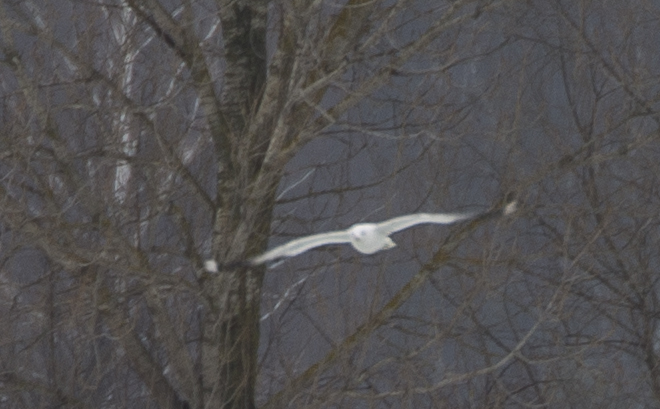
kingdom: Animalia
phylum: Chordata
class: Aves
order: Charadriiformes
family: Laridae
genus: Larus
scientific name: Larus canus
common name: Mew gull
